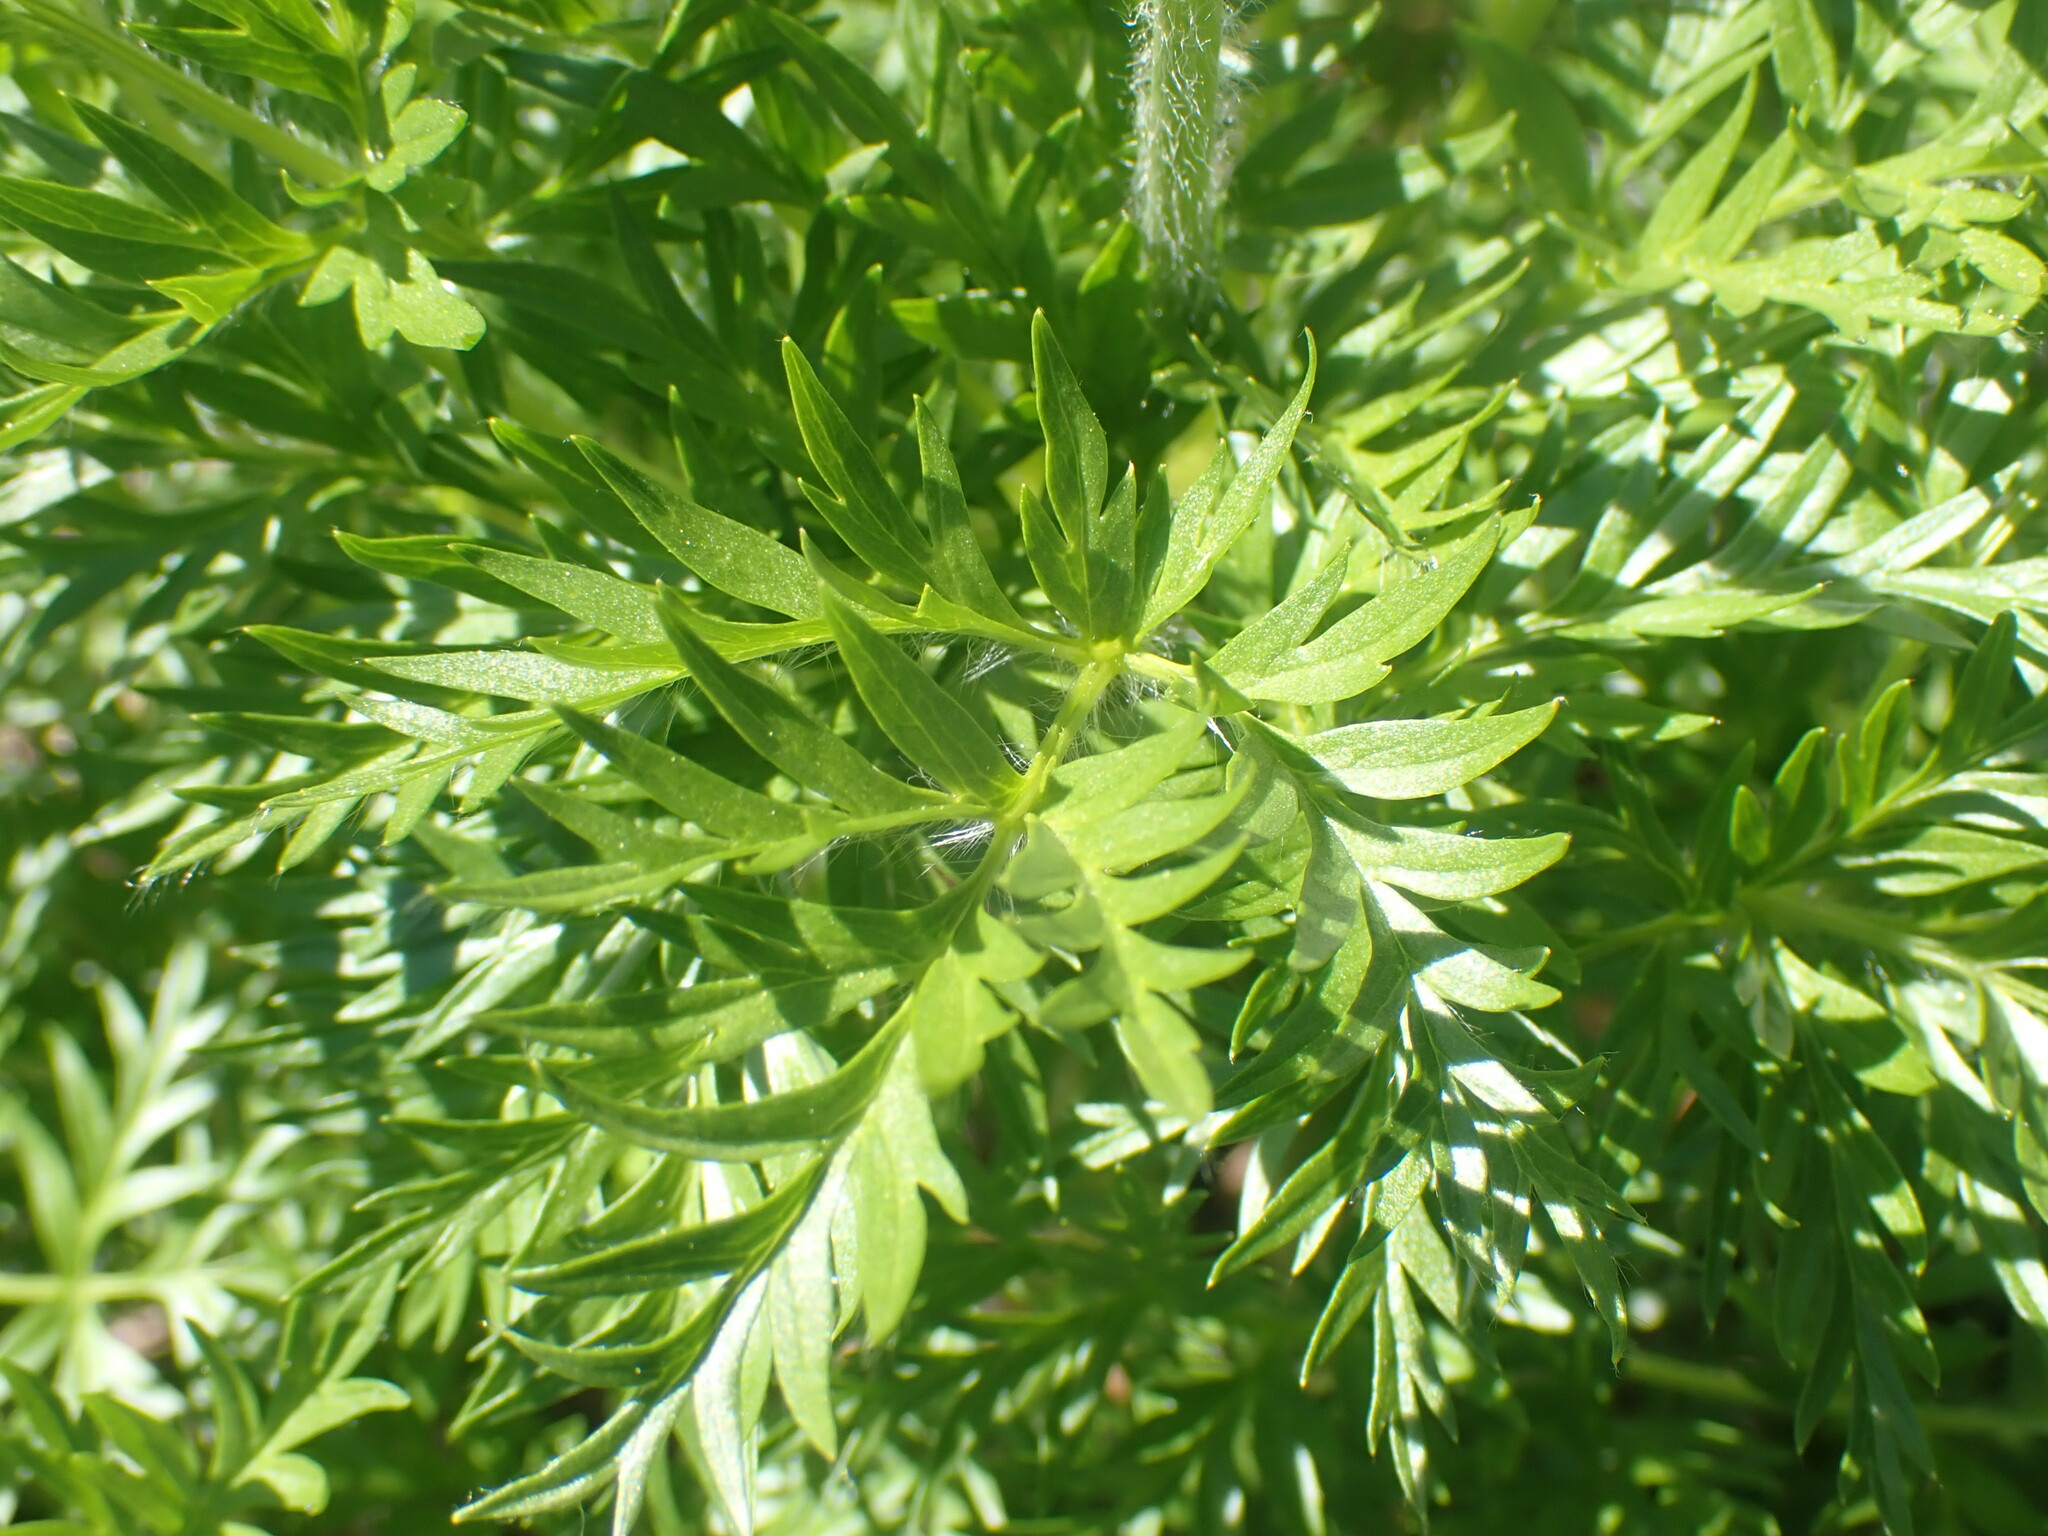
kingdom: Plantae
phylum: Tracheophyta
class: Magnoliopsida
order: Ranunculales
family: Ranunculaceae
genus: Pulsatilla
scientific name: Pulsatilla occidentalis
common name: Mountain pasqueflower
